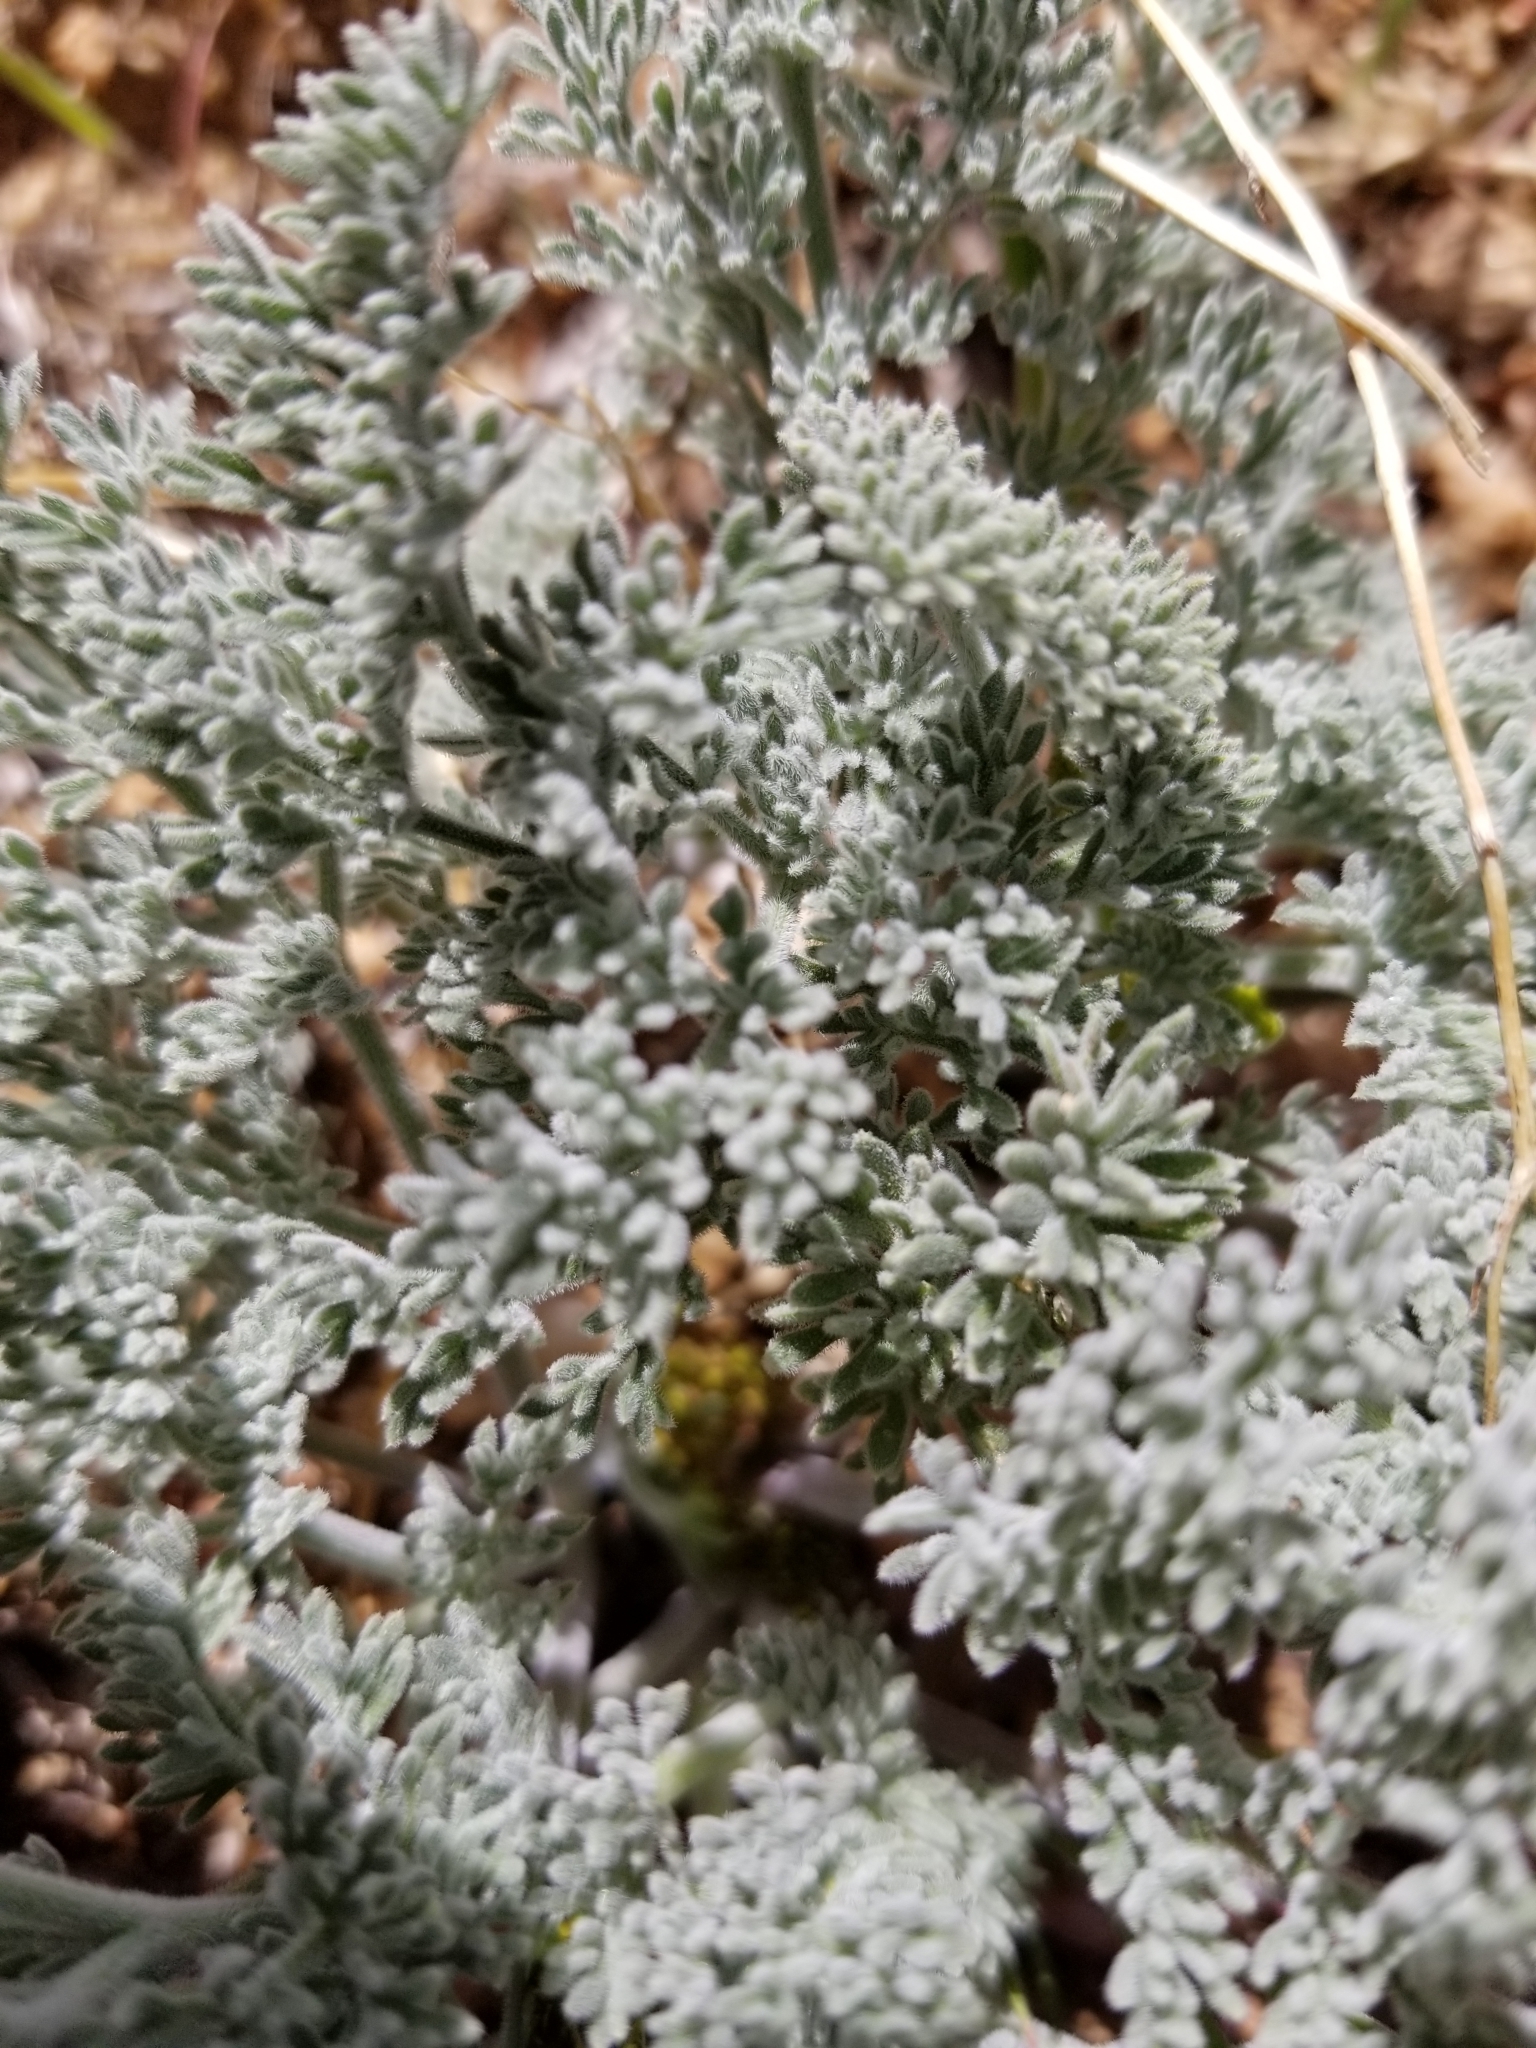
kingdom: Plantae
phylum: Tracheophyta
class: Magnoliopsida
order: Apiales
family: Apiaceae
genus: Lomatium
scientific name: Lomatium mohavense
